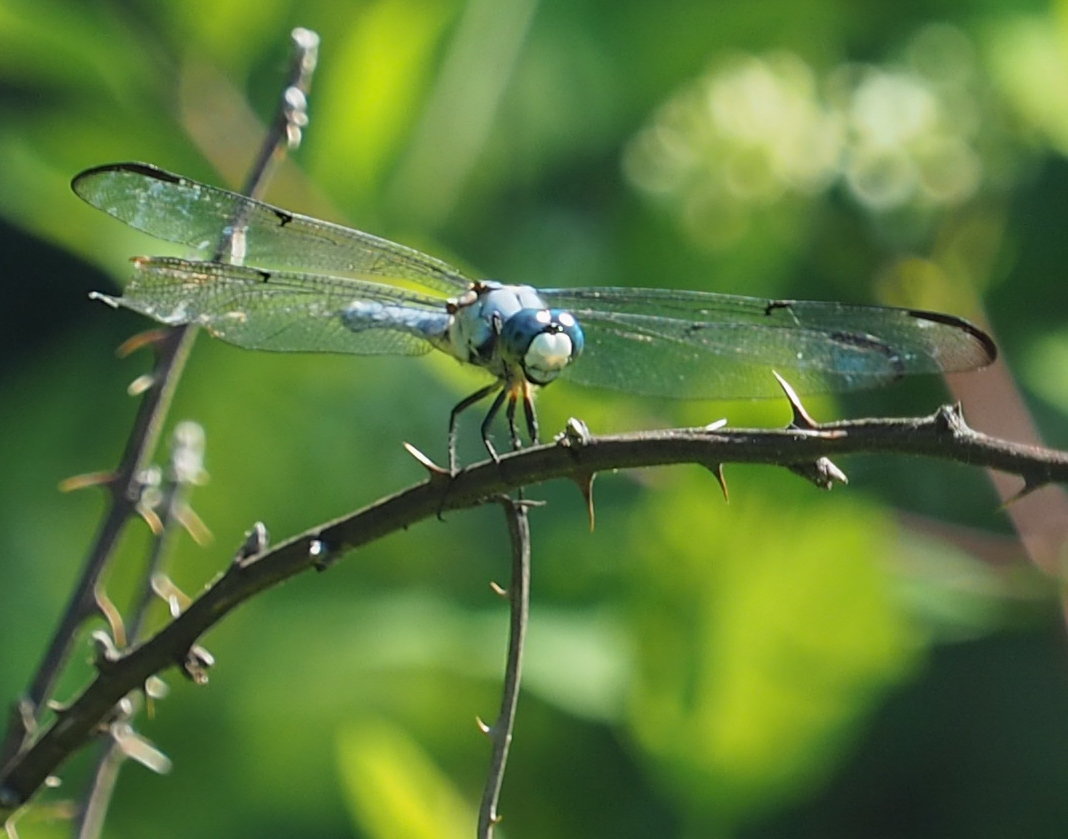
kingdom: Animalia
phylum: Arthropoda
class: Insecta
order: Odonata
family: Libellulidae
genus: Libellula
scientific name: Libellula vibrans
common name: Great blue skimmer
